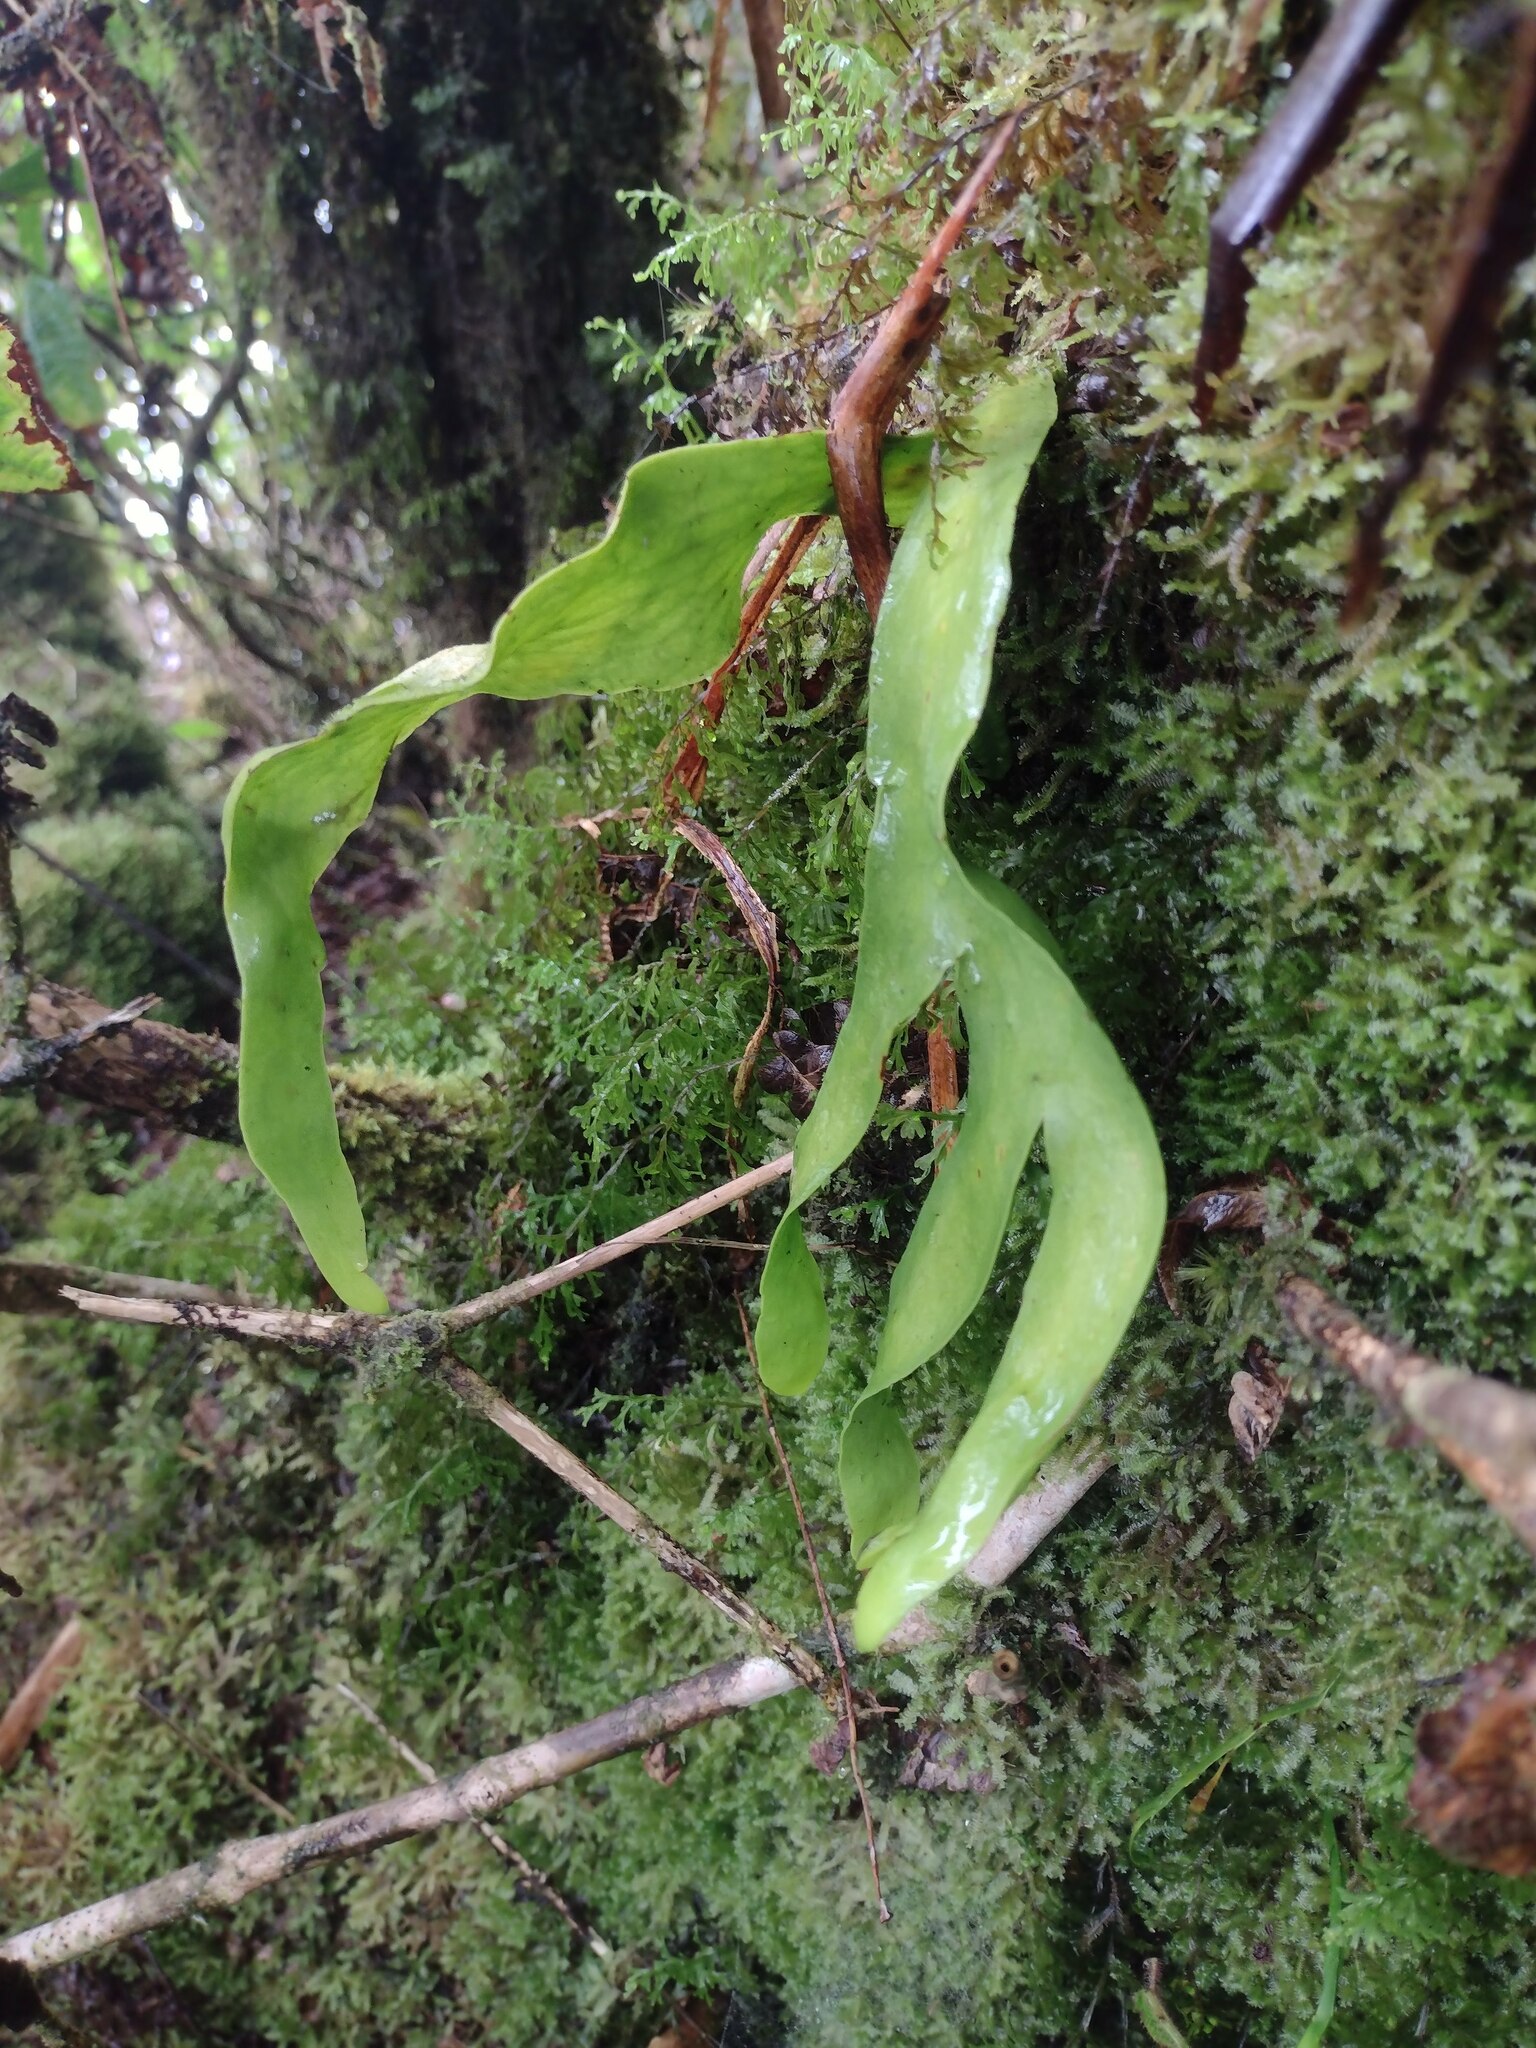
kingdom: Plantae
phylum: Tracheophyta
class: Polypodiopsida
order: Ophioglossales
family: Ophioglossaceae
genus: Ophioderma
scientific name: Ophioderma falcatum
